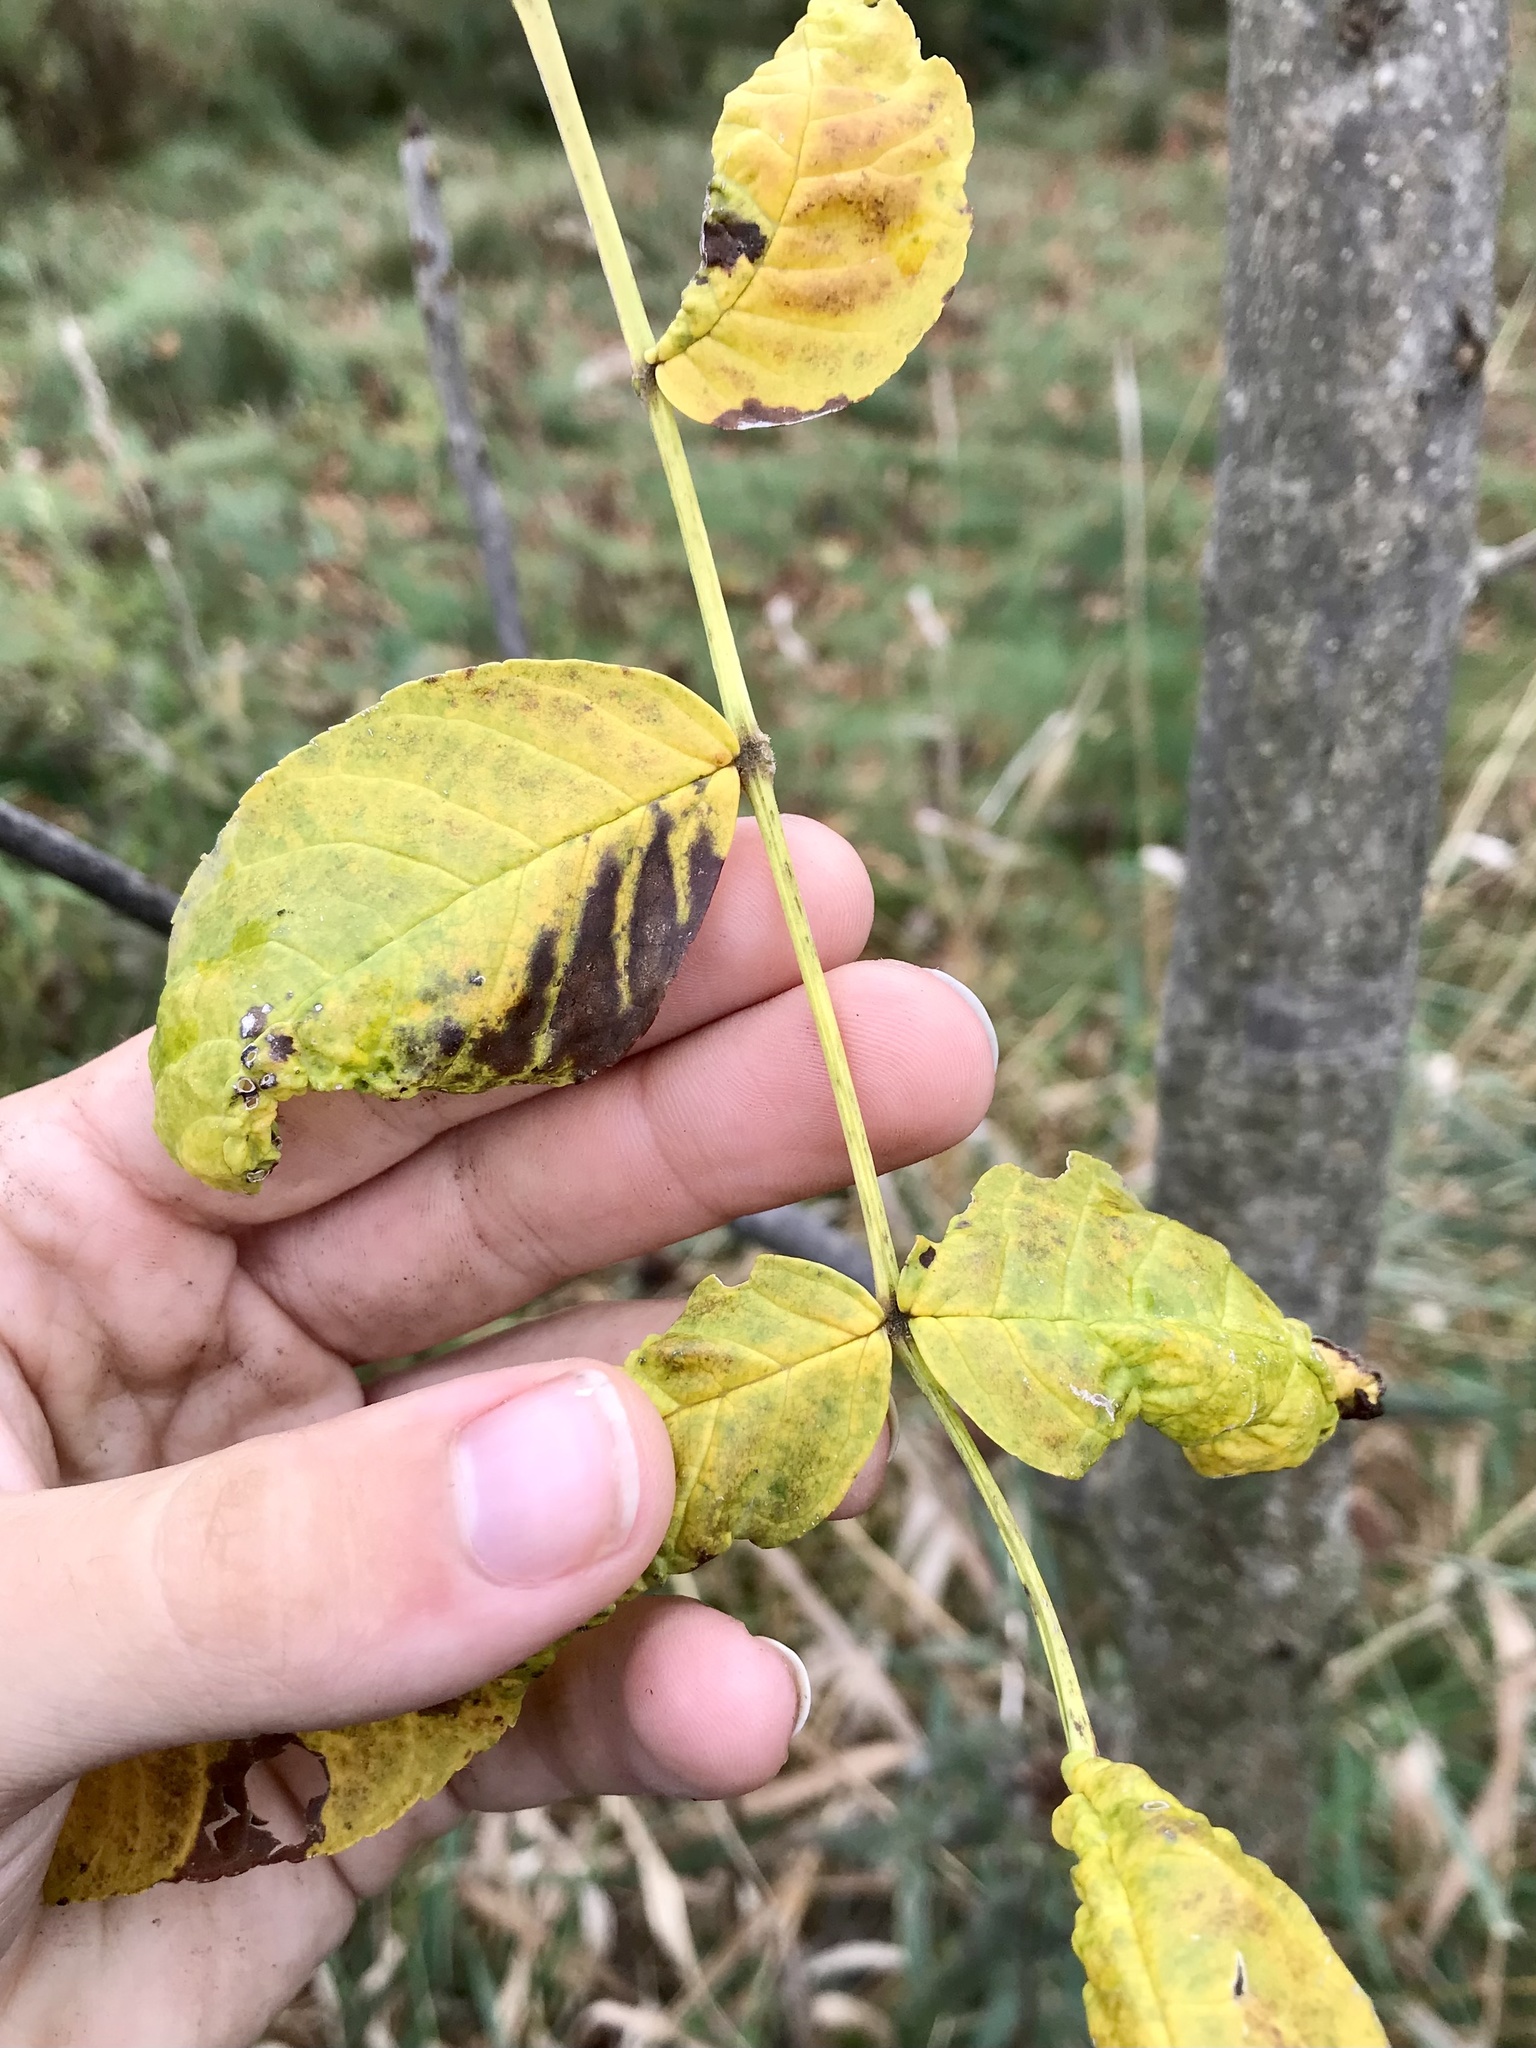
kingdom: Plantae
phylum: Tracheophyta
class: Magnoliopsida
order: Lamiales
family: Oleaceae
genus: Fraxinus
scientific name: Fraxinus nigra
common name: Black ash
